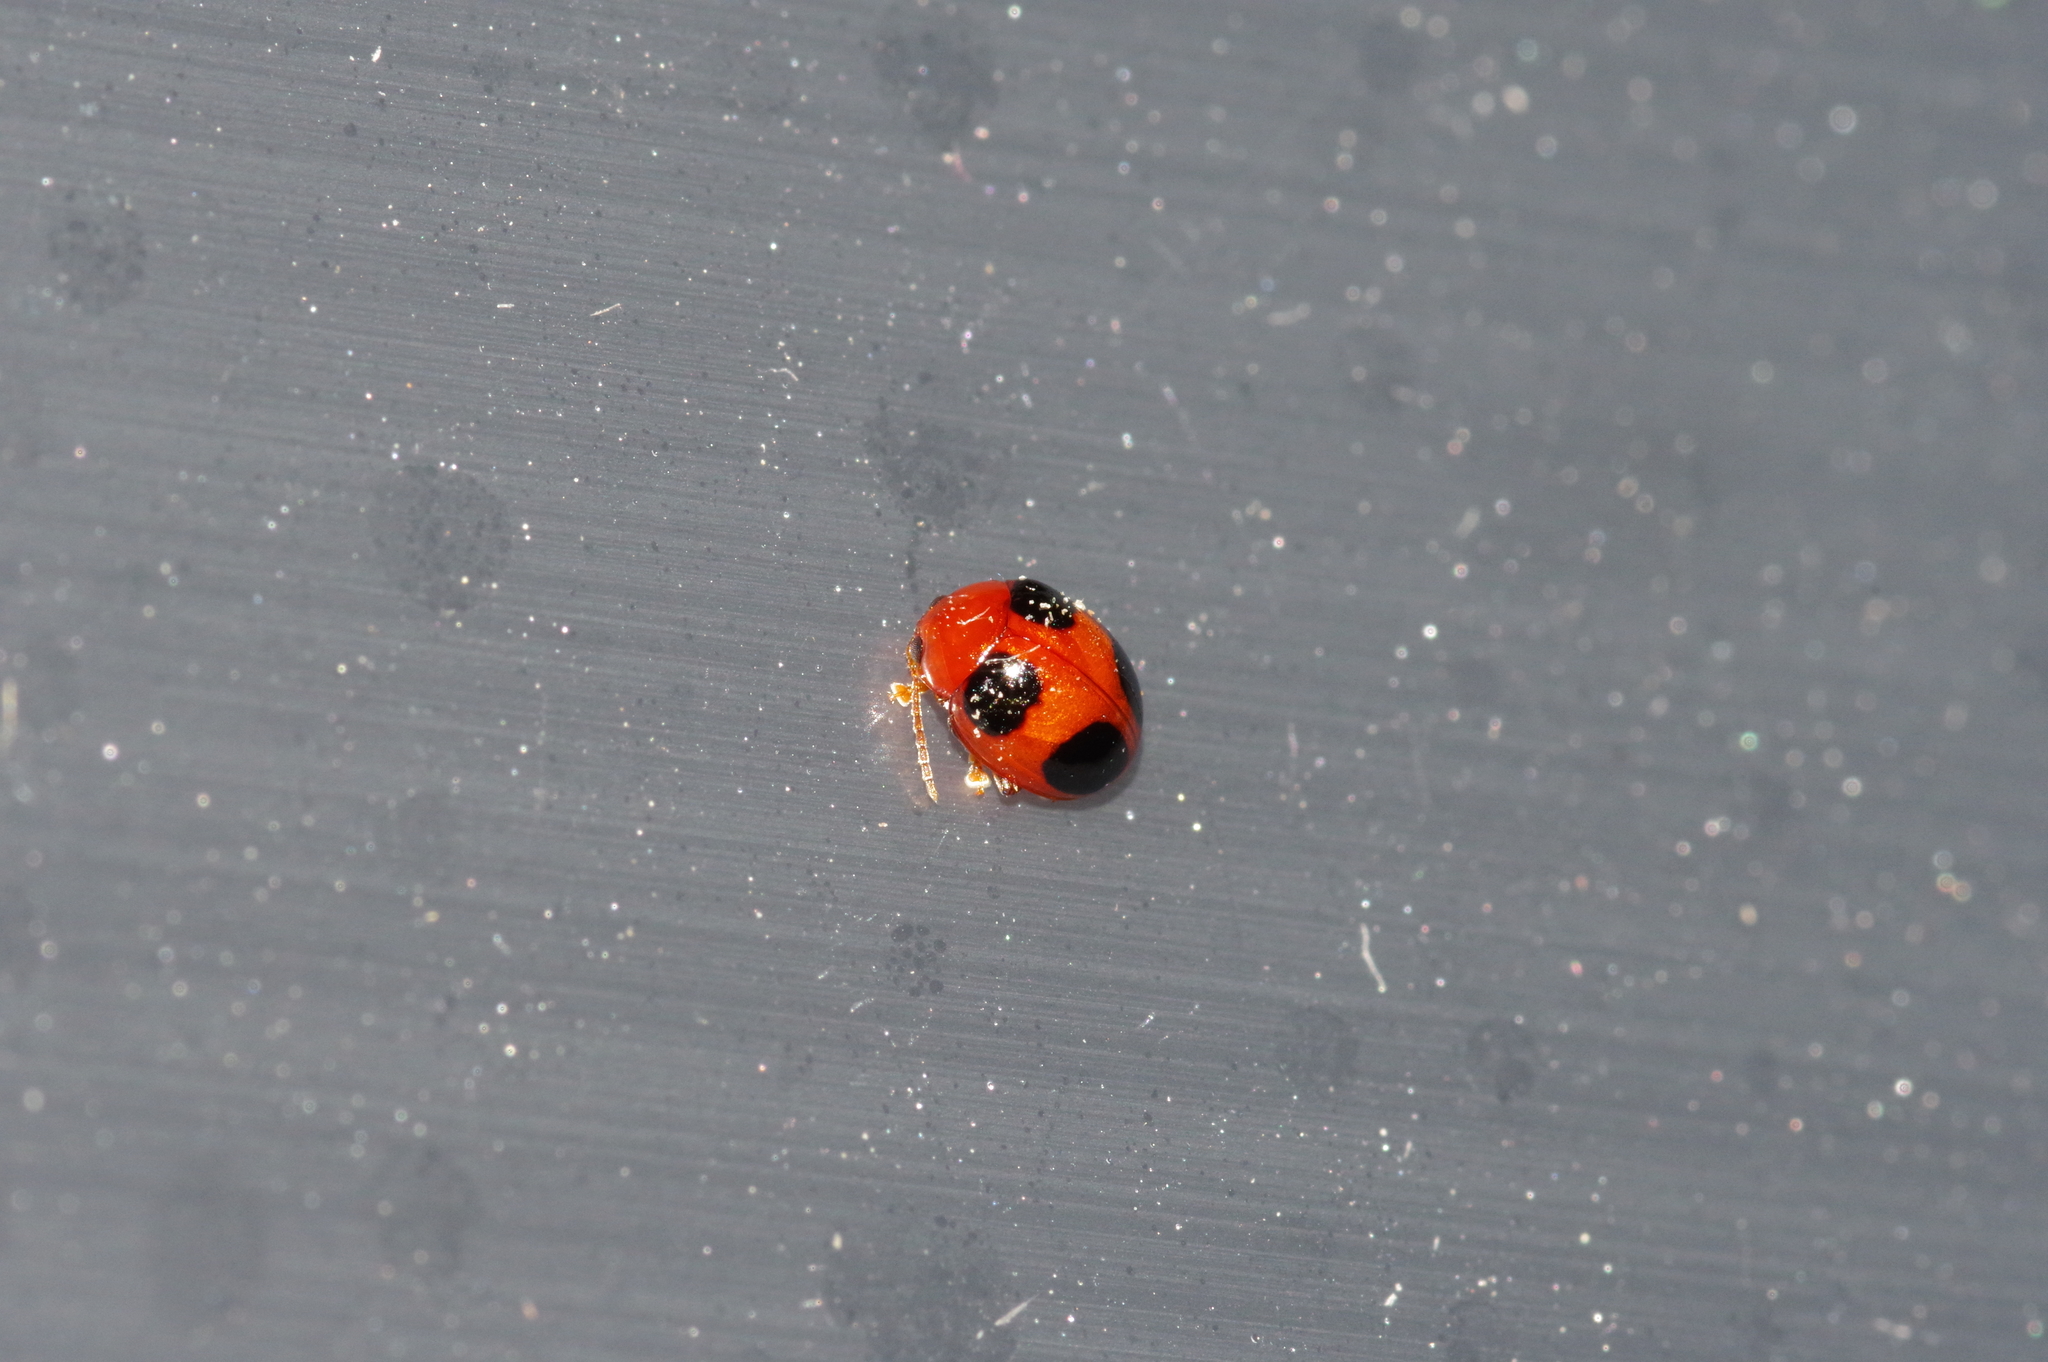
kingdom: Animalia
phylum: Arthropoda
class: Insecta
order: Coleoptera
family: Chrysomelidae
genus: Sphaeroderma
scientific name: Sphaeroderma
